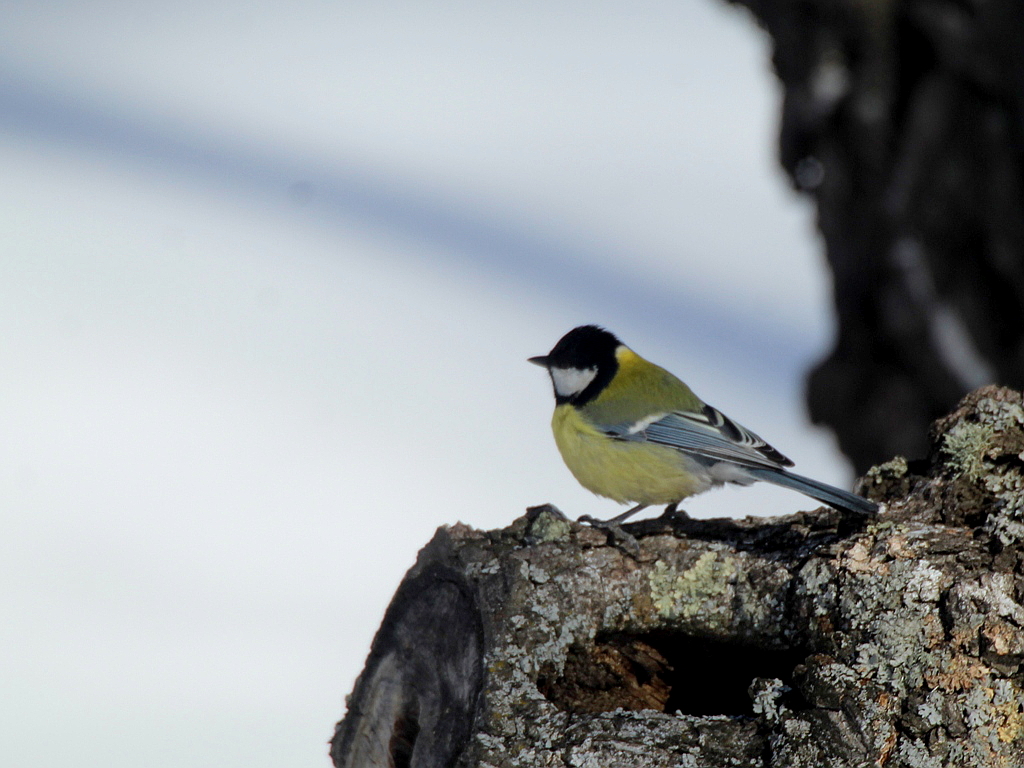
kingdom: Animalia
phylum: Chordata
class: Aves
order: Passeriformes
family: Paridae
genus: Parus
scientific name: Parus major
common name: Great tit
